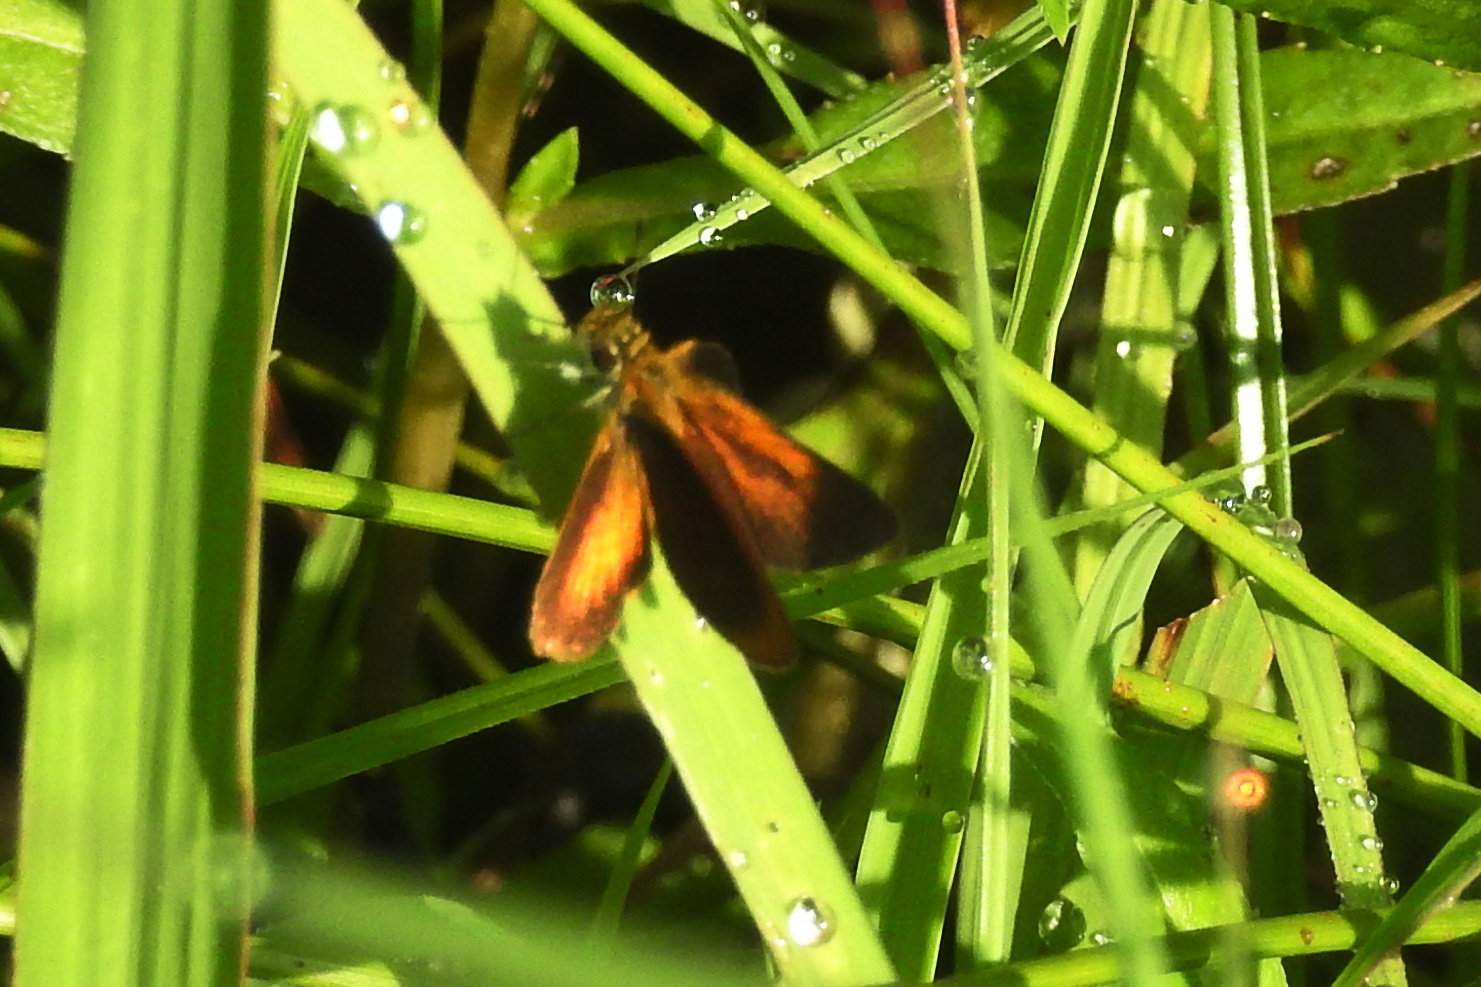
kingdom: Animalia
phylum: Arthropoda
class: Insecta
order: Lepidoptera
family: Hesperiidae
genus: Ancyloxypha
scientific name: Ancyloxypha numitor
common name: Least skipper
